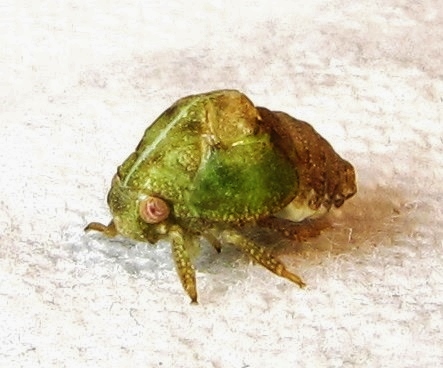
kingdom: Animalia
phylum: Arthropoda
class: Insecta
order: Hemiptera
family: Acanaloniidae
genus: Acanalonia
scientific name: Acanalonia conica
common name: Green cone-headed planthopper
